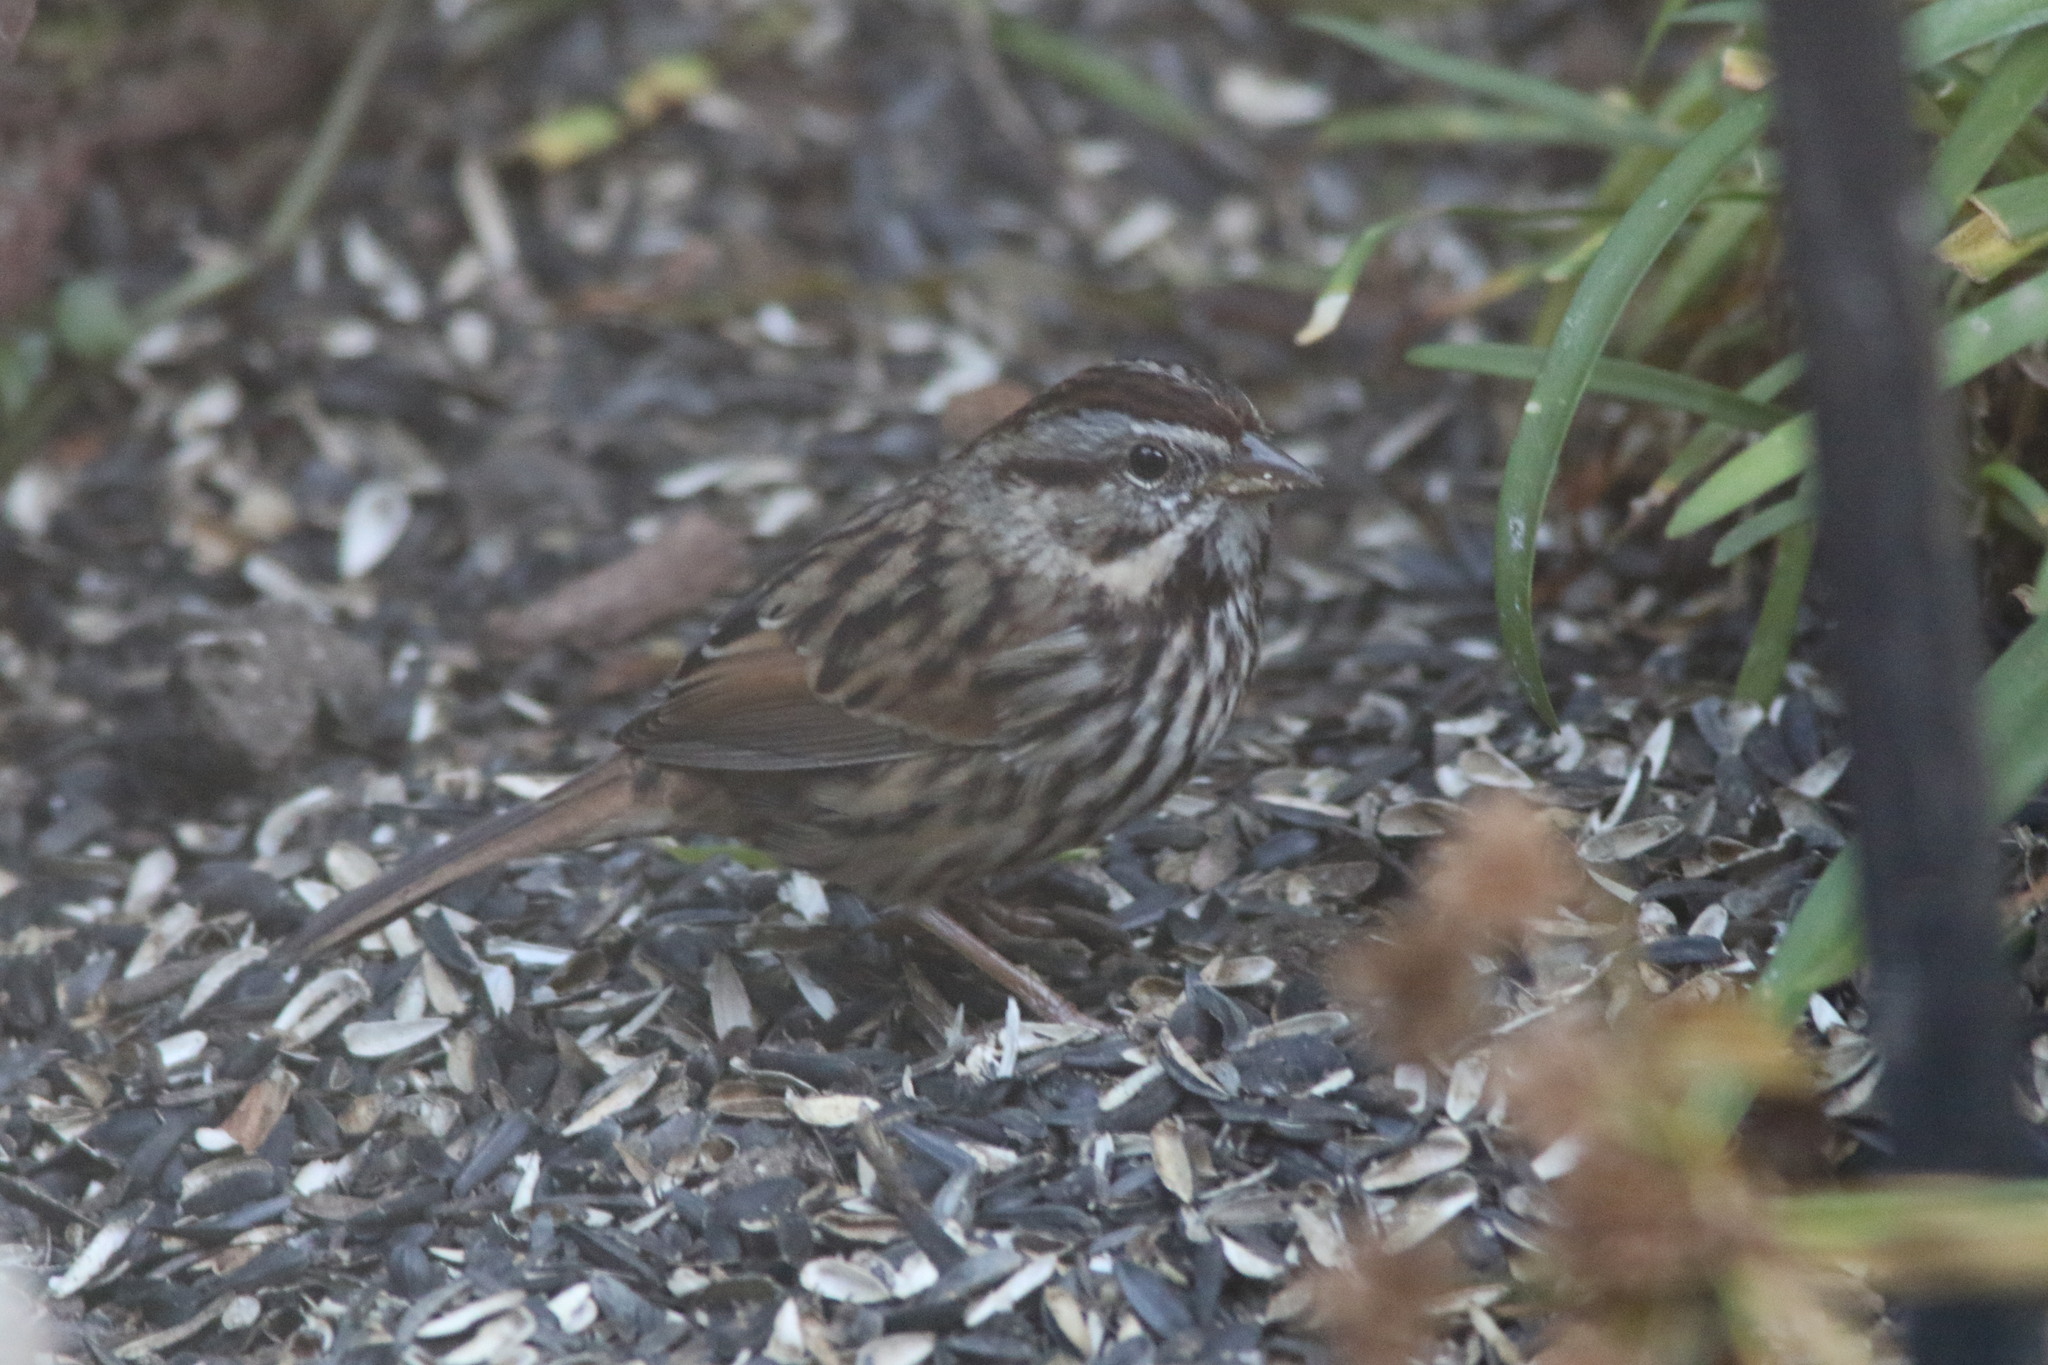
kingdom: Animalia
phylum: Chordata
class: Aves
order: Passeriformes
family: Passerellidae
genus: Melospiza
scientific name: Melospiza melodia
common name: Song sparrow
